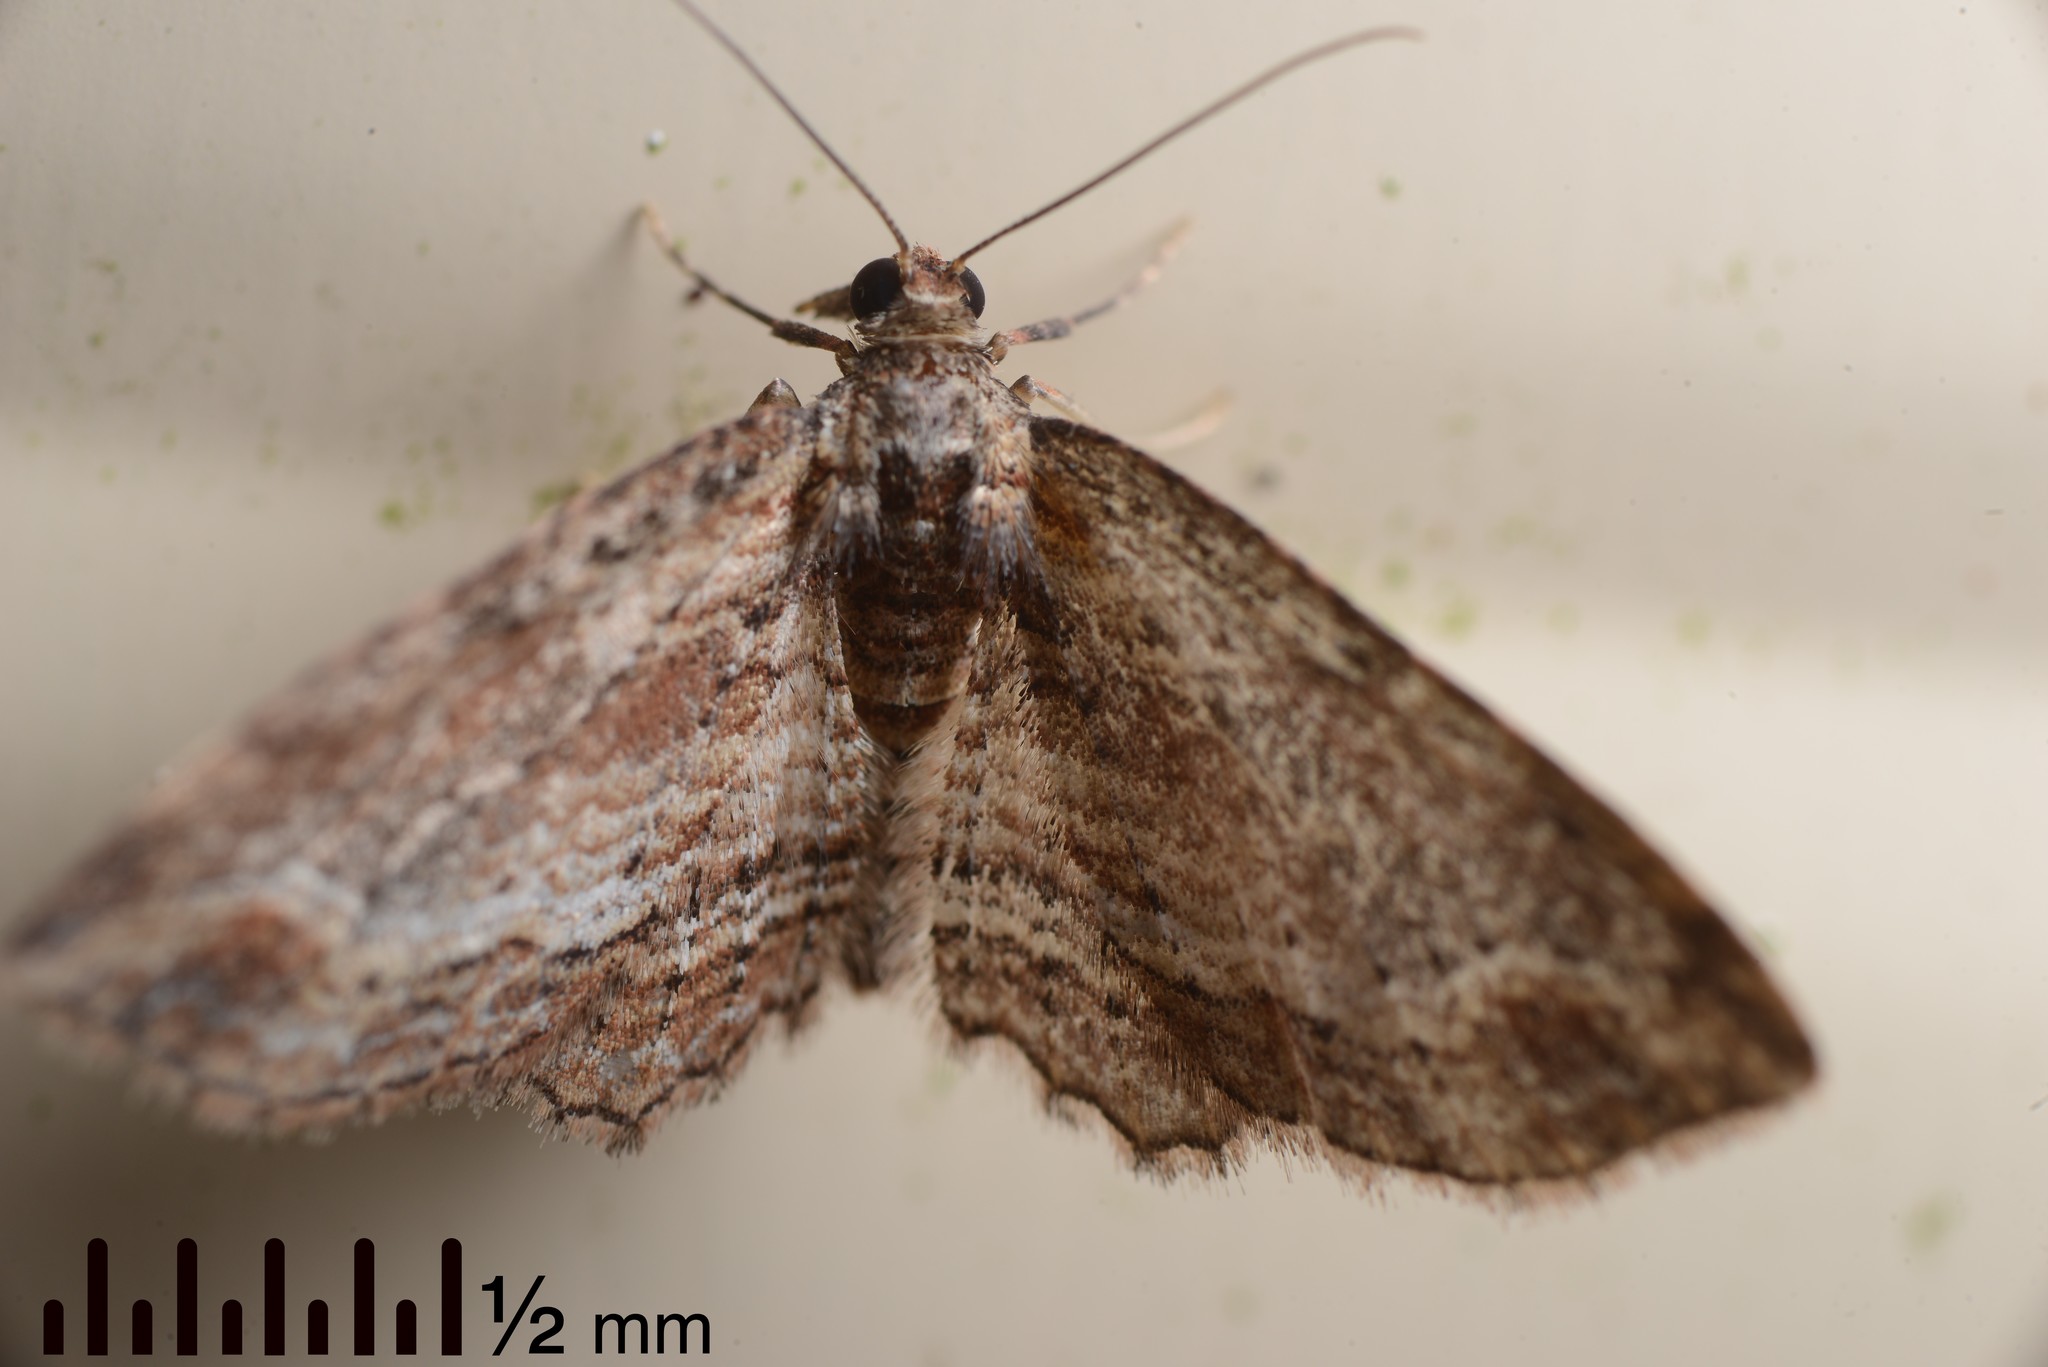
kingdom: Animalia
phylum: Arthropoda
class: Insecta
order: Lepidoptera
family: Geometridae
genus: Chloroclystis
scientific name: Chloroclystis filata
